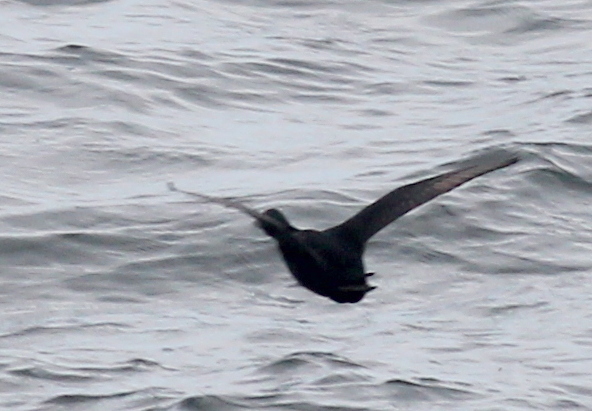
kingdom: Animalia
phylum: Chordata
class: Aves
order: Anseriformes
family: Anatidae
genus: Melanitta
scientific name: Melanitta nigra
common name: Common scoter
